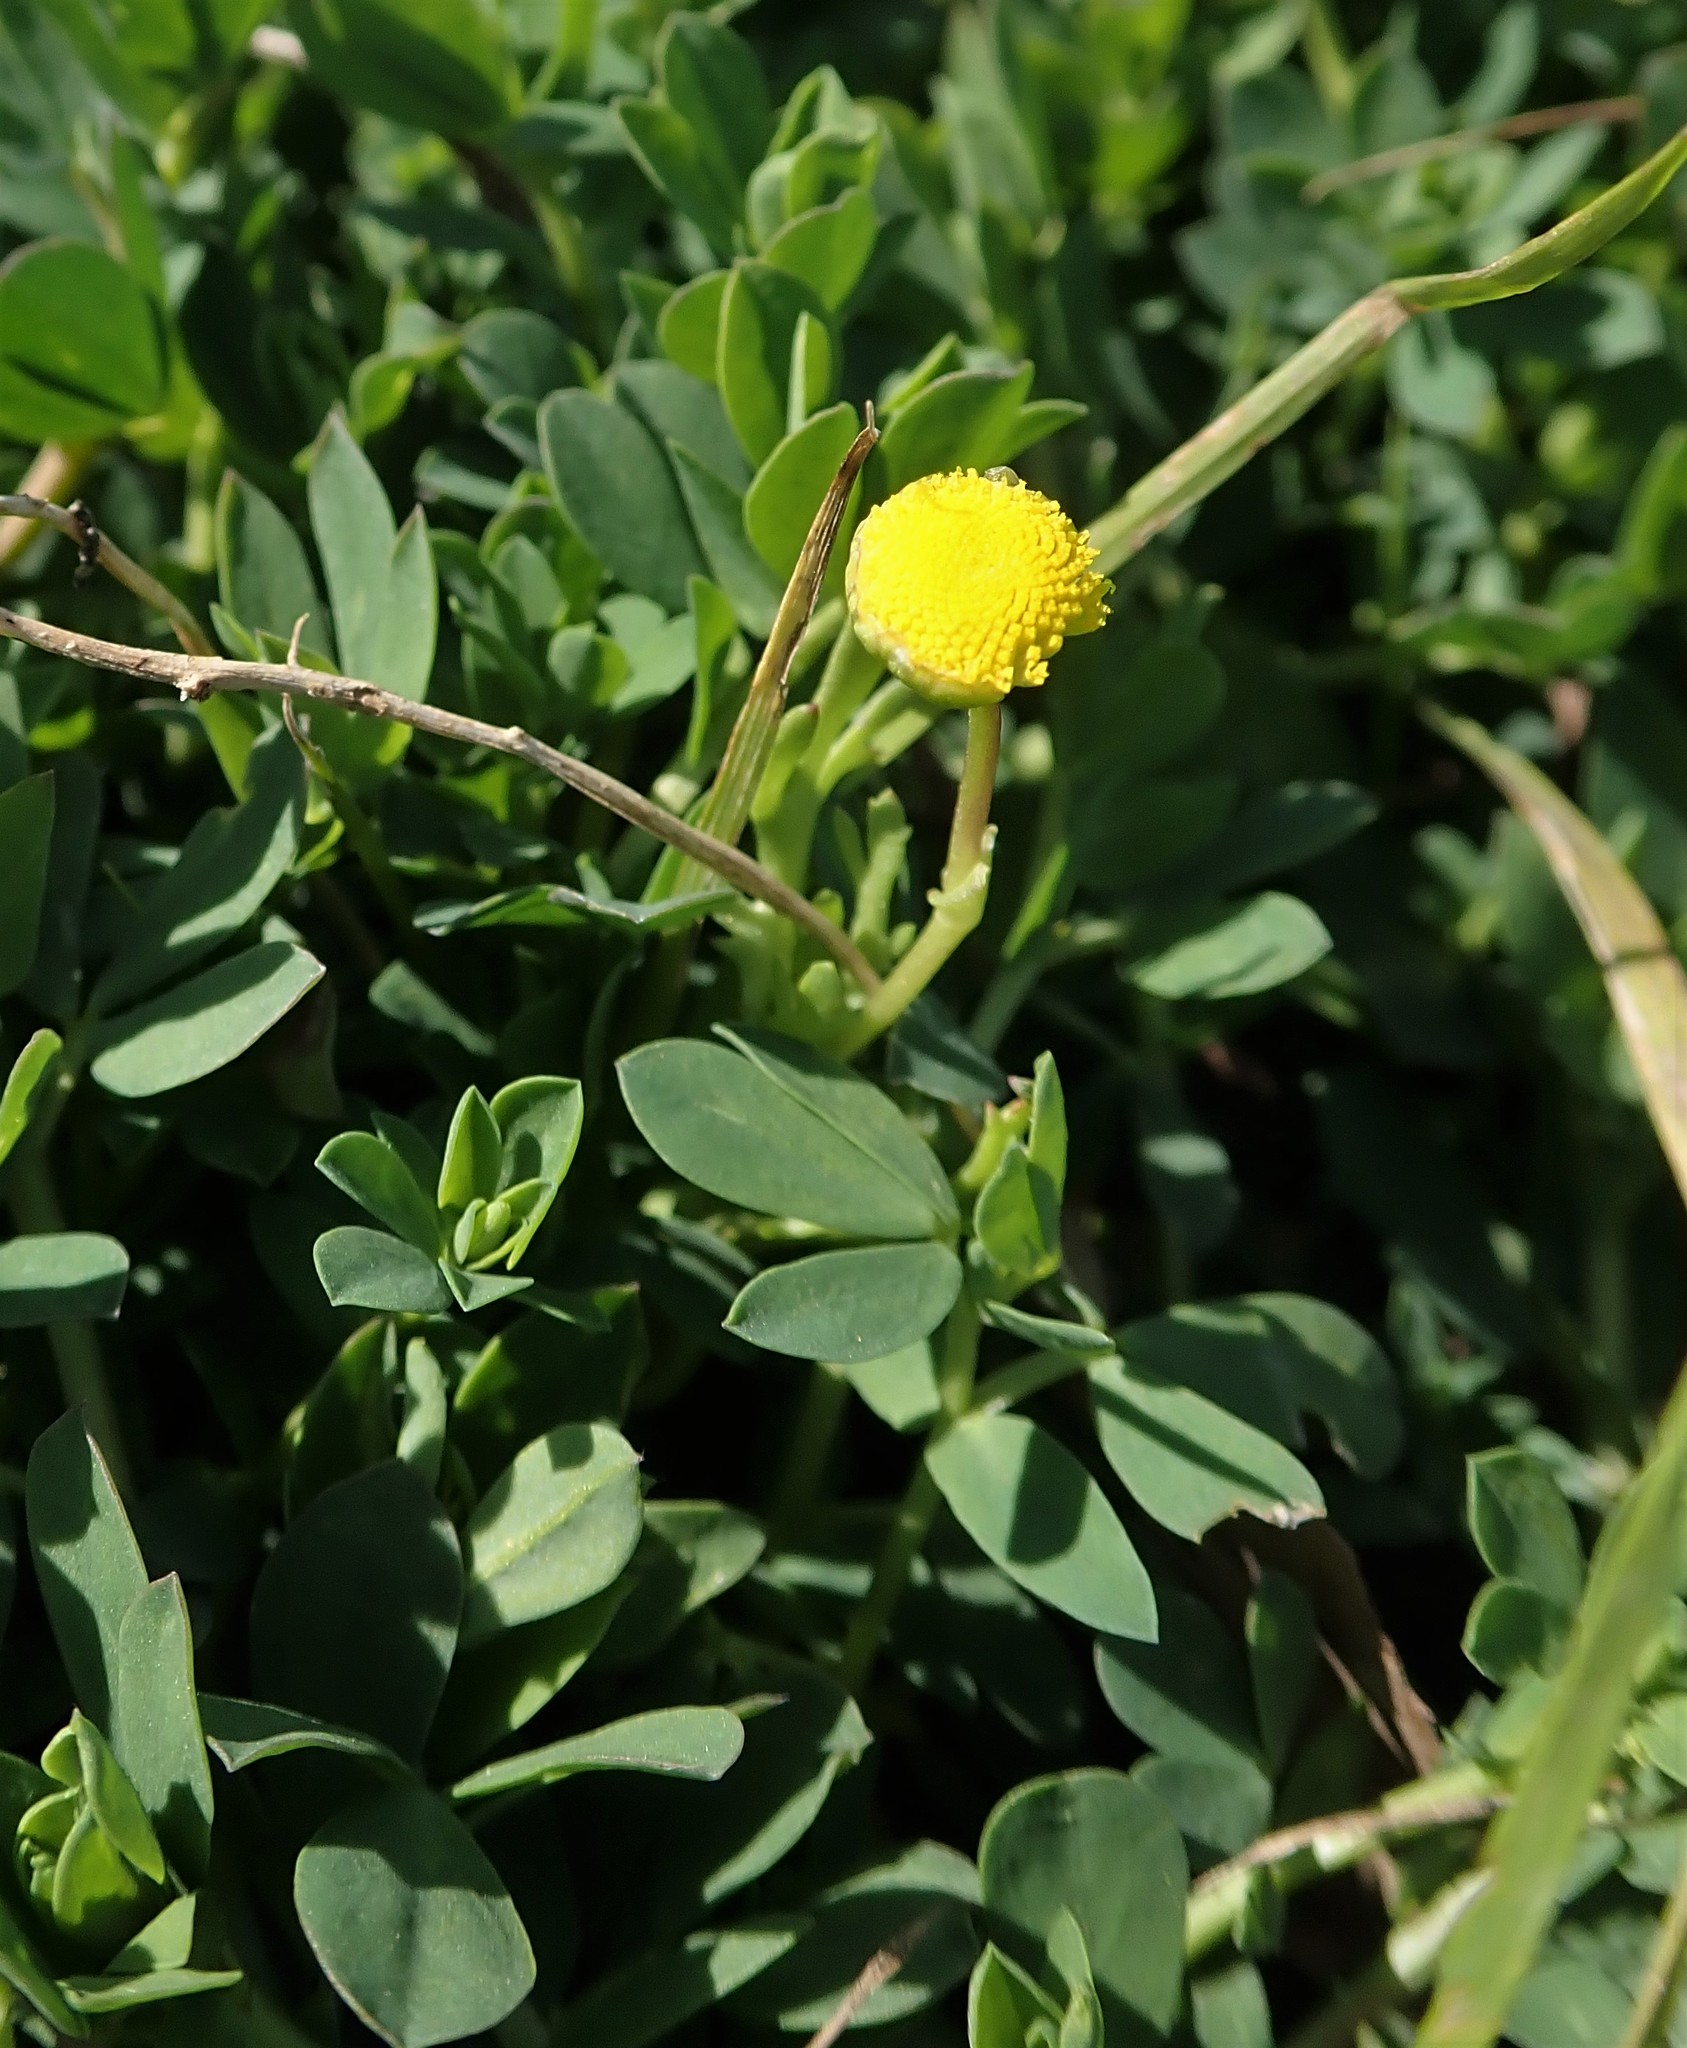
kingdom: Plantae
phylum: Tracheophyta
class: Magnoliopsida
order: Asterales
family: Asteraceae
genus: Cotula
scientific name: Cotula coronopifolia
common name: Buttonweed
